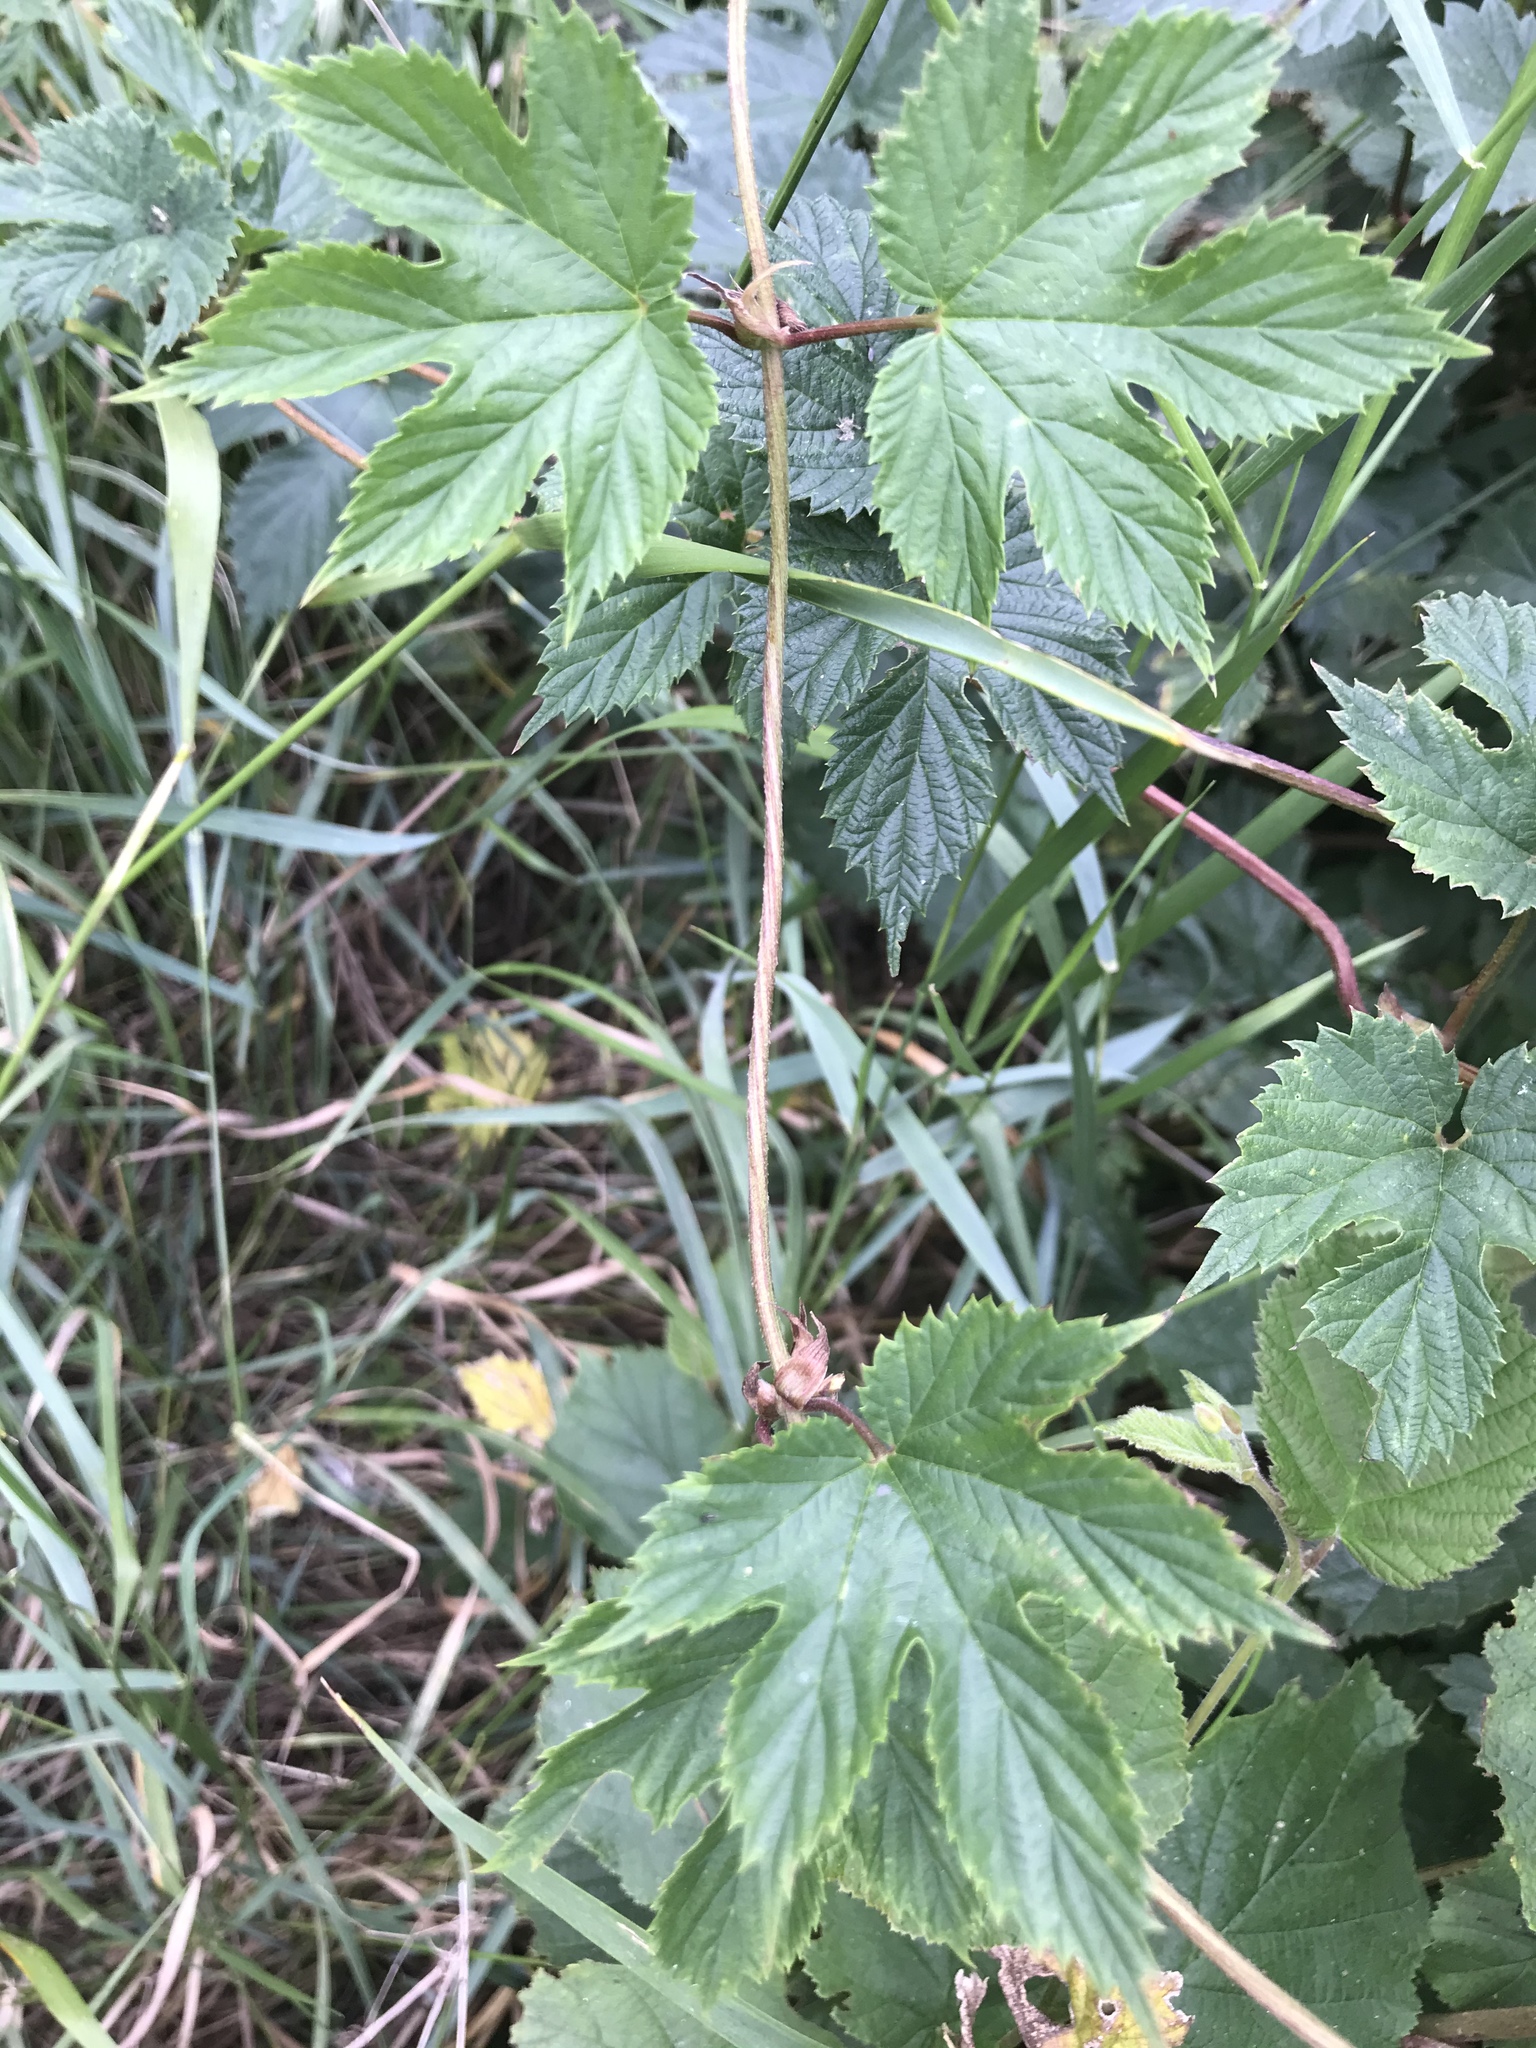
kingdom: Plantae
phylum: Tracheophyta
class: Magnoliopsida
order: Rosales
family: Cannabaceae
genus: Humulus
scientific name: Humulus lupulus
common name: Hop
